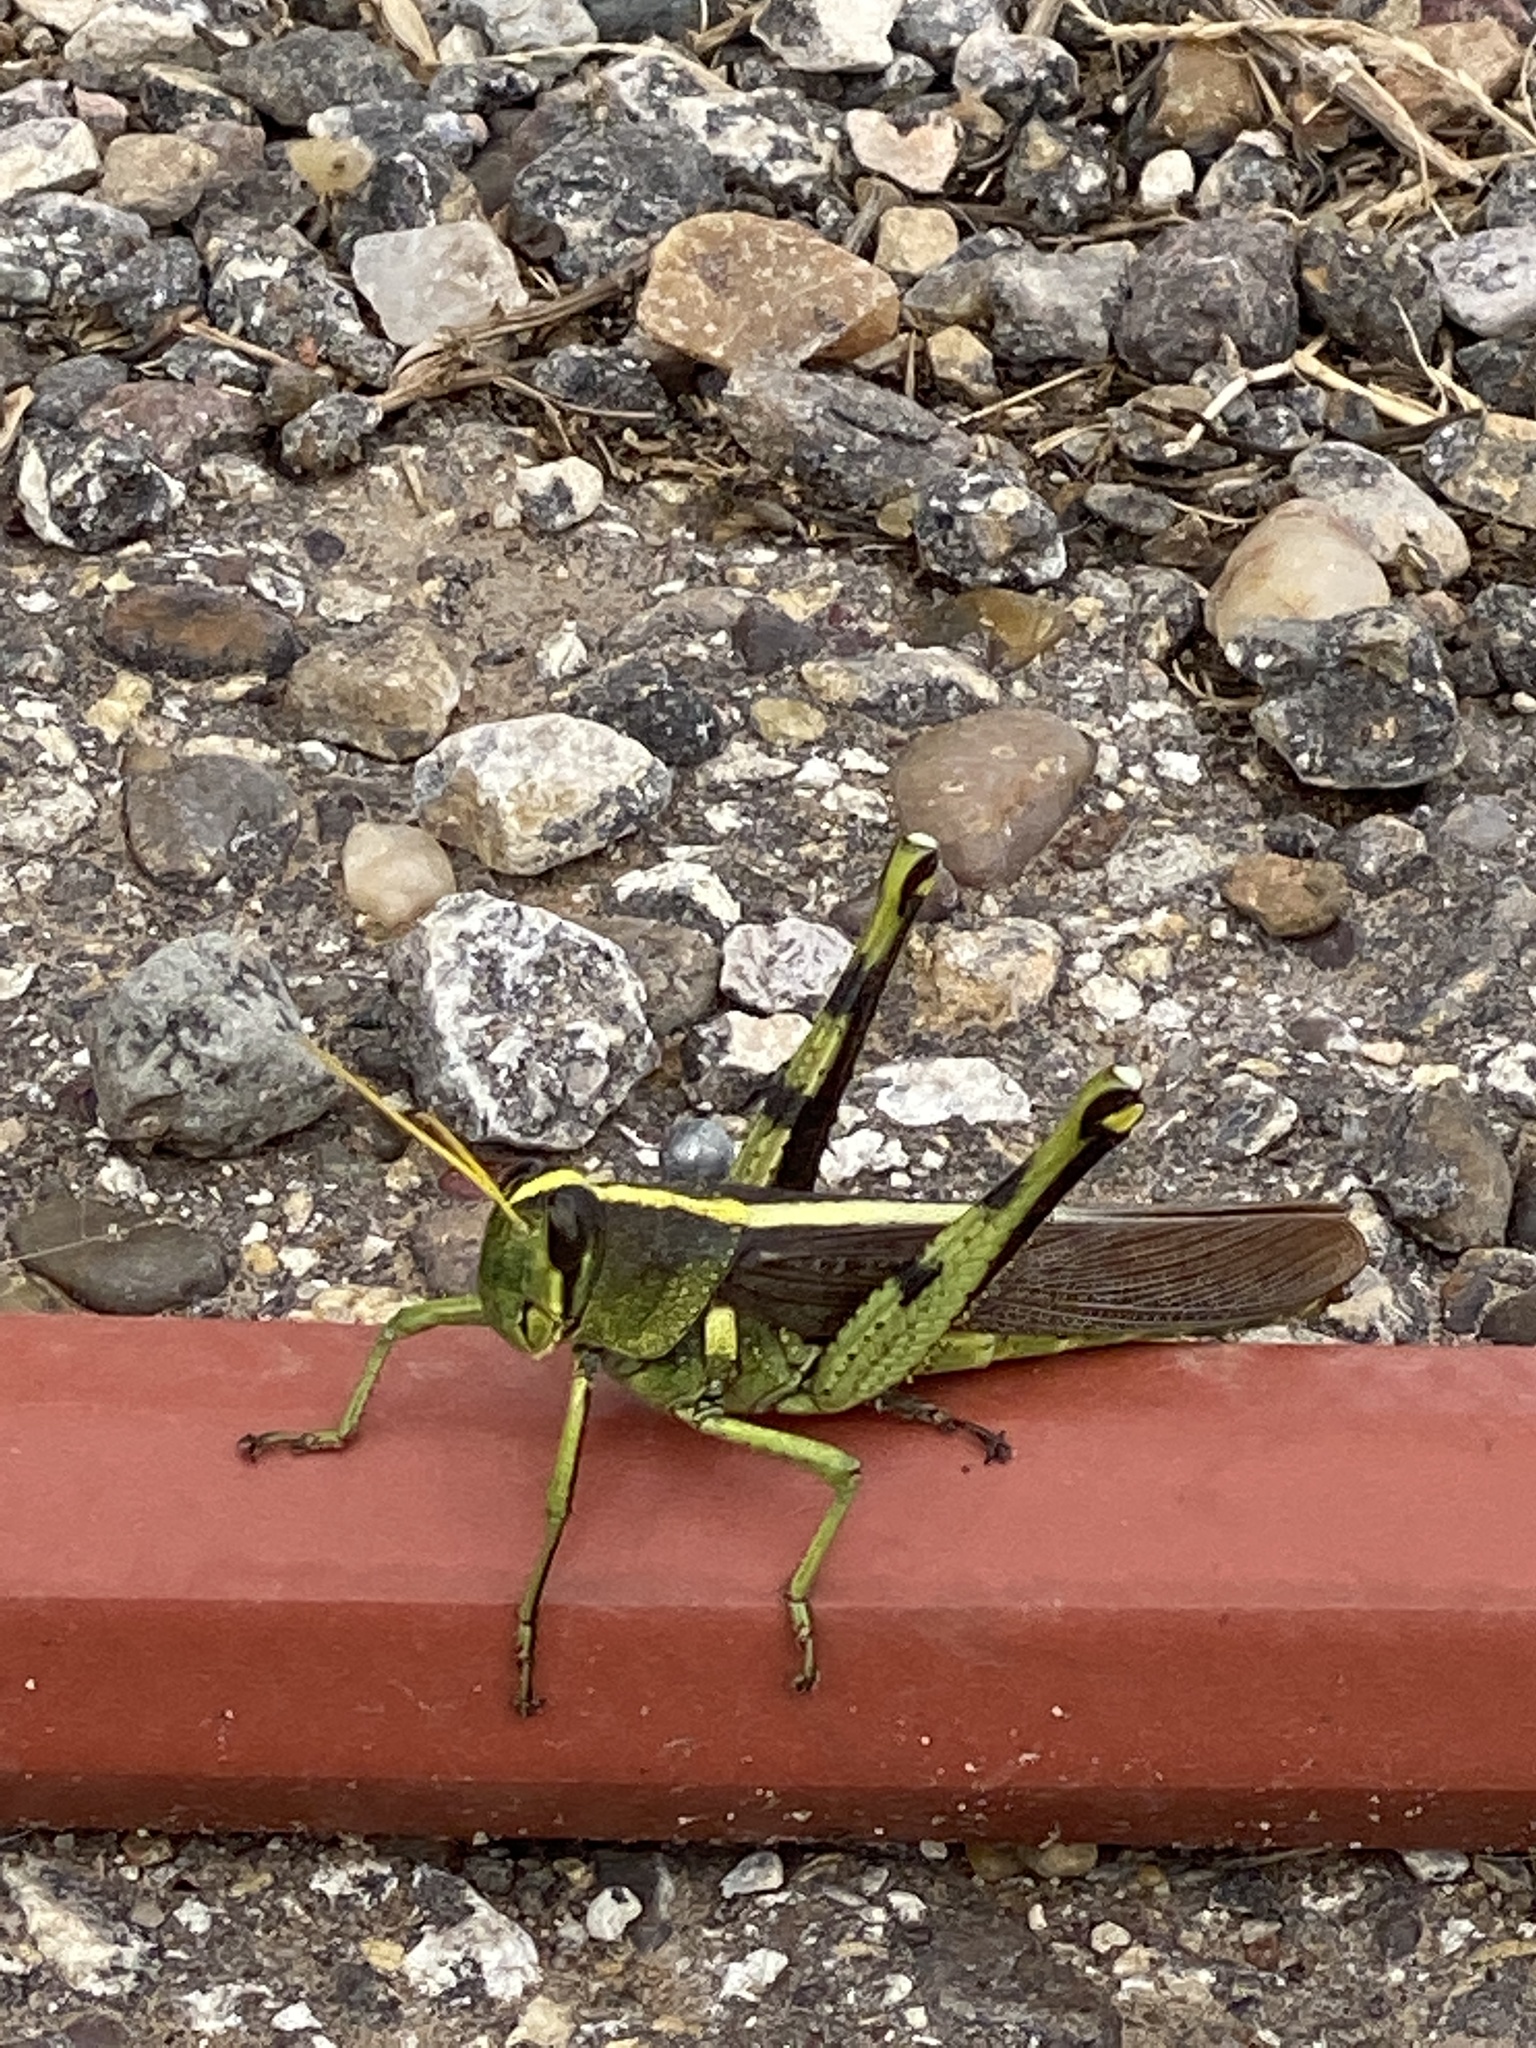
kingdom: Animalia
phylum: Arthropoda
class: Insecta
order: Orthoptera
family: Acrididae
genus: Schistocerca
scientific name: Schistocerca obscura
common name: Obscure bird grasshopper
